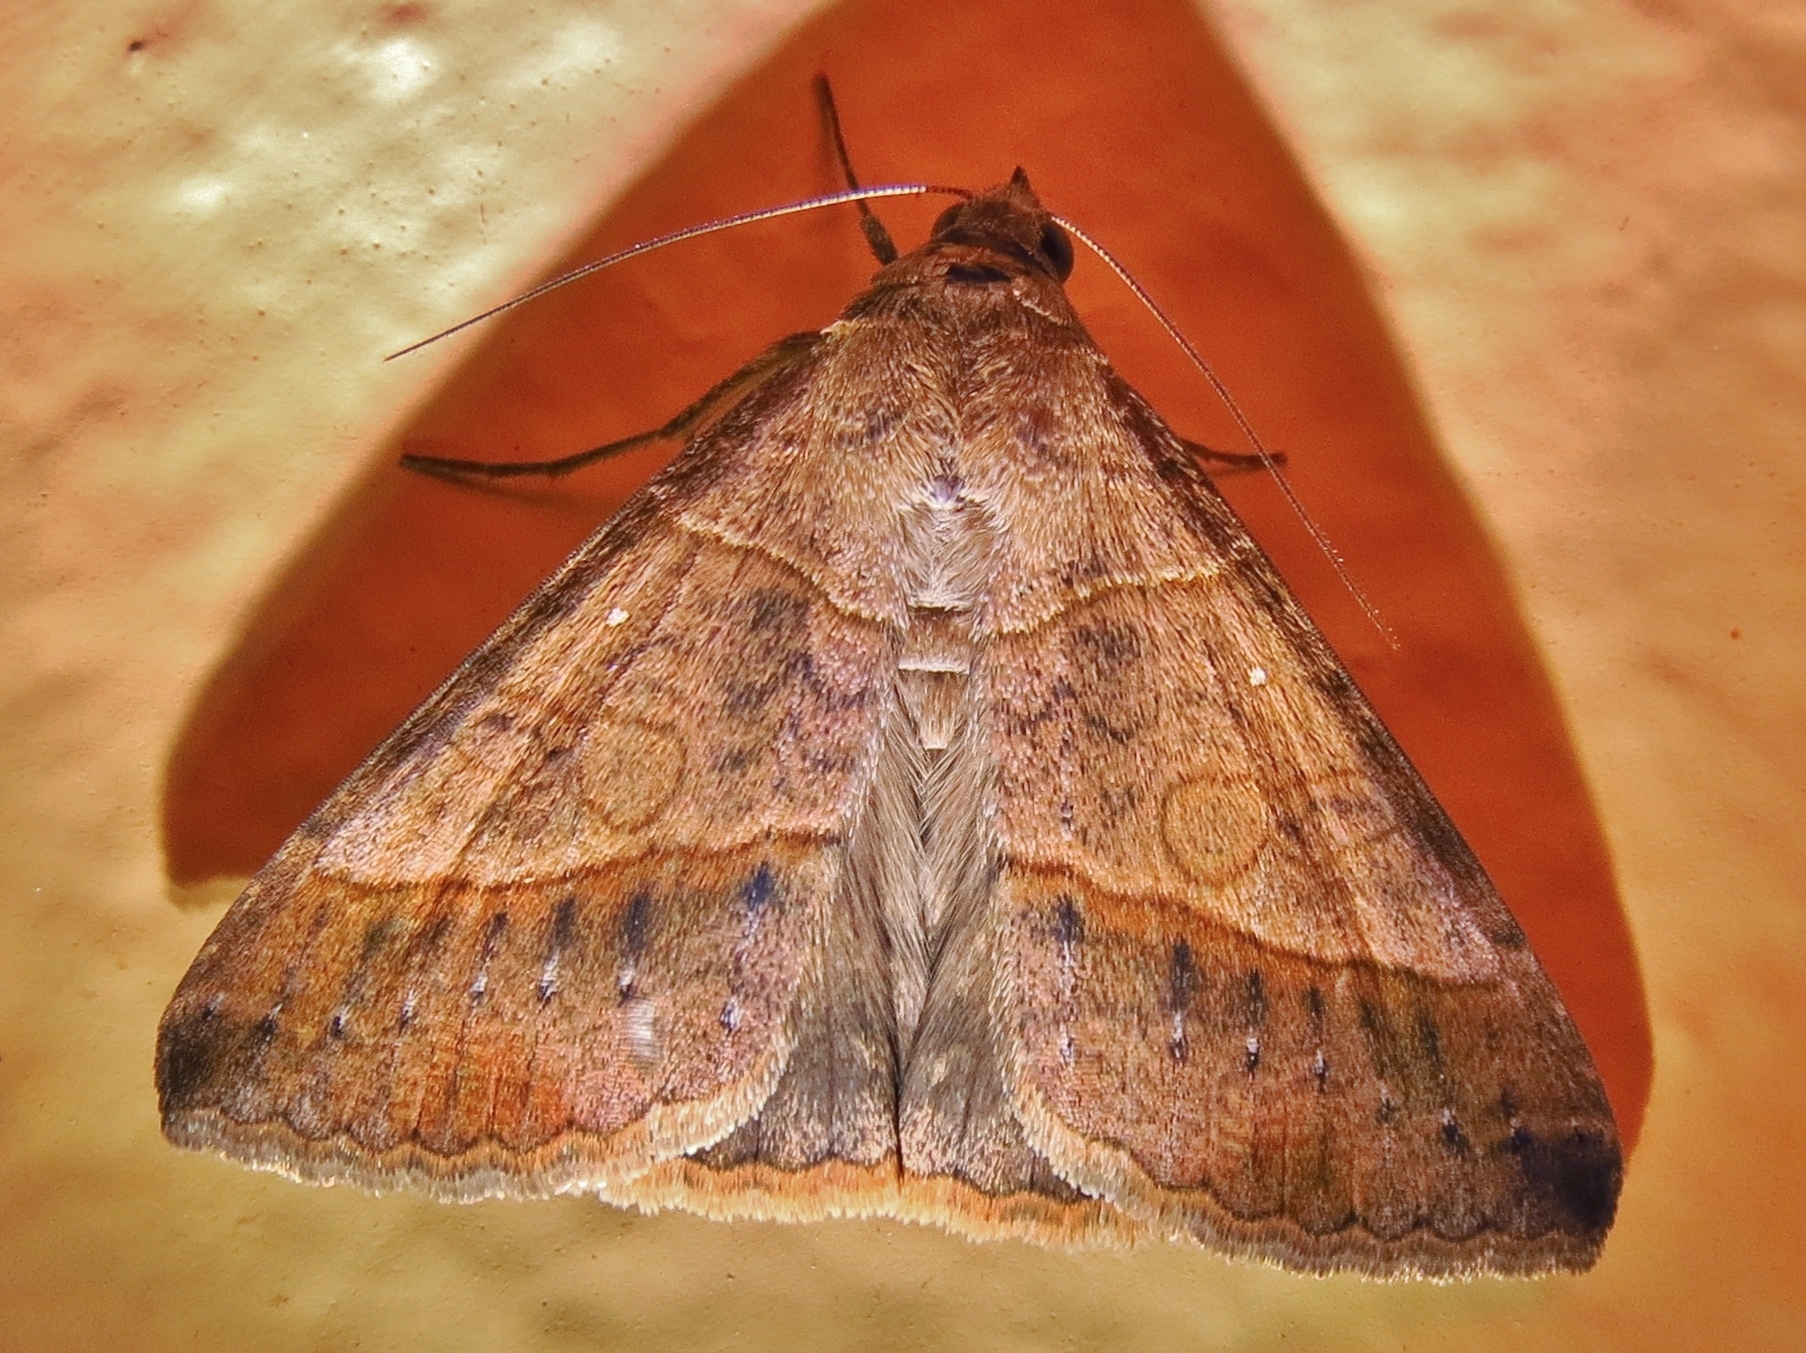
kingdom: Animalia
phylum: Arthropoda
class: Insecta
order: Lepidoptera
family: Erebidae
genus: Mocis
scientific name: Mocis latipes
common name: Striped grass looper
